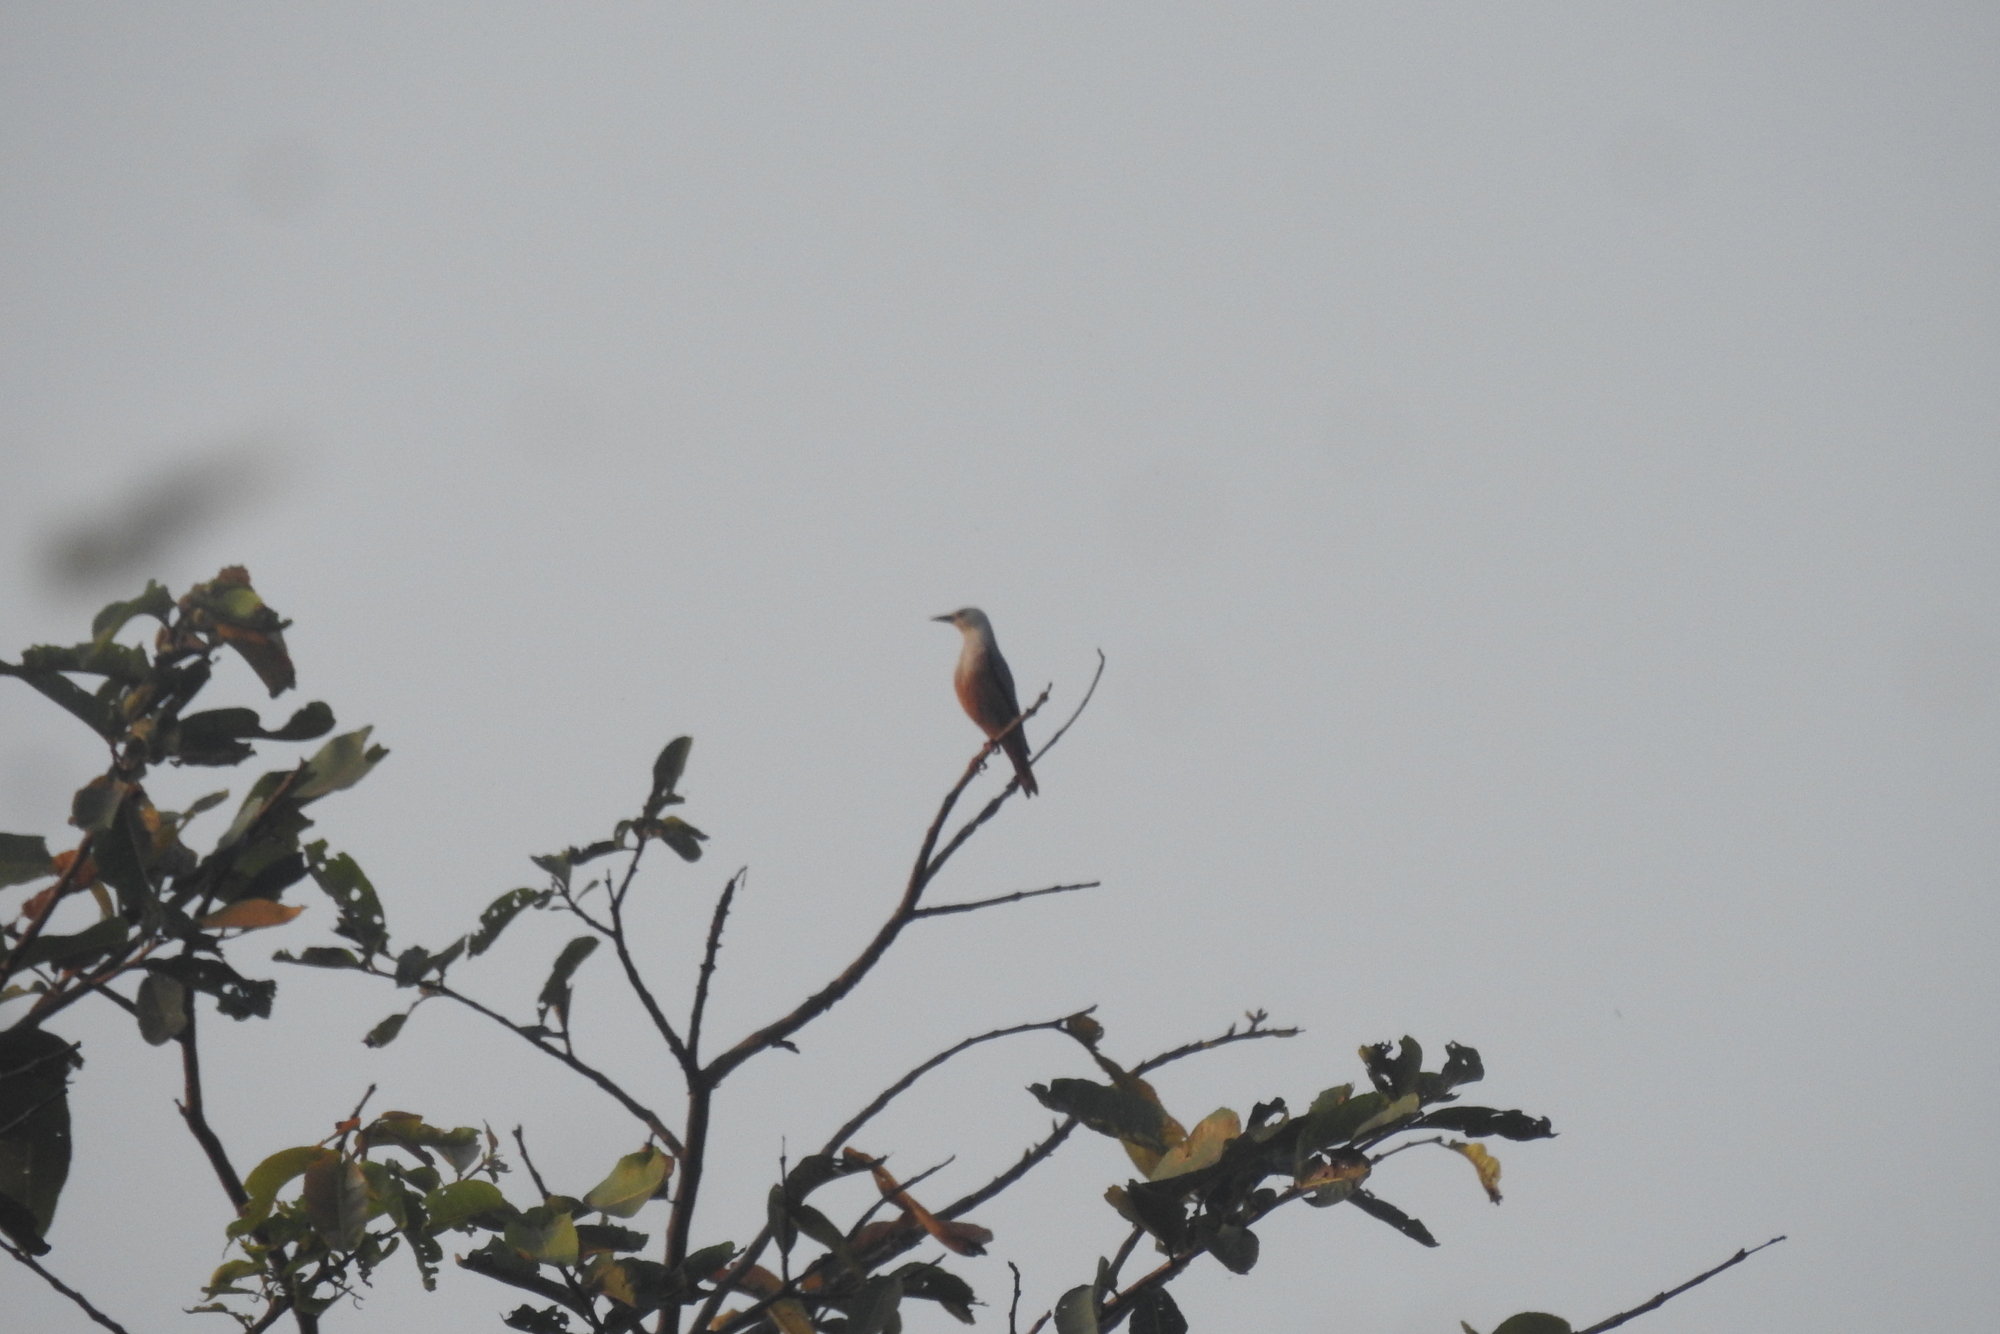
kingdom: Animalia
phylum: Chordata
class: Aves
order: Passeriformes
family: Sturnidae
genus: Sturnia
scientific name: Sturnia blythii
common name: Malabar starling
